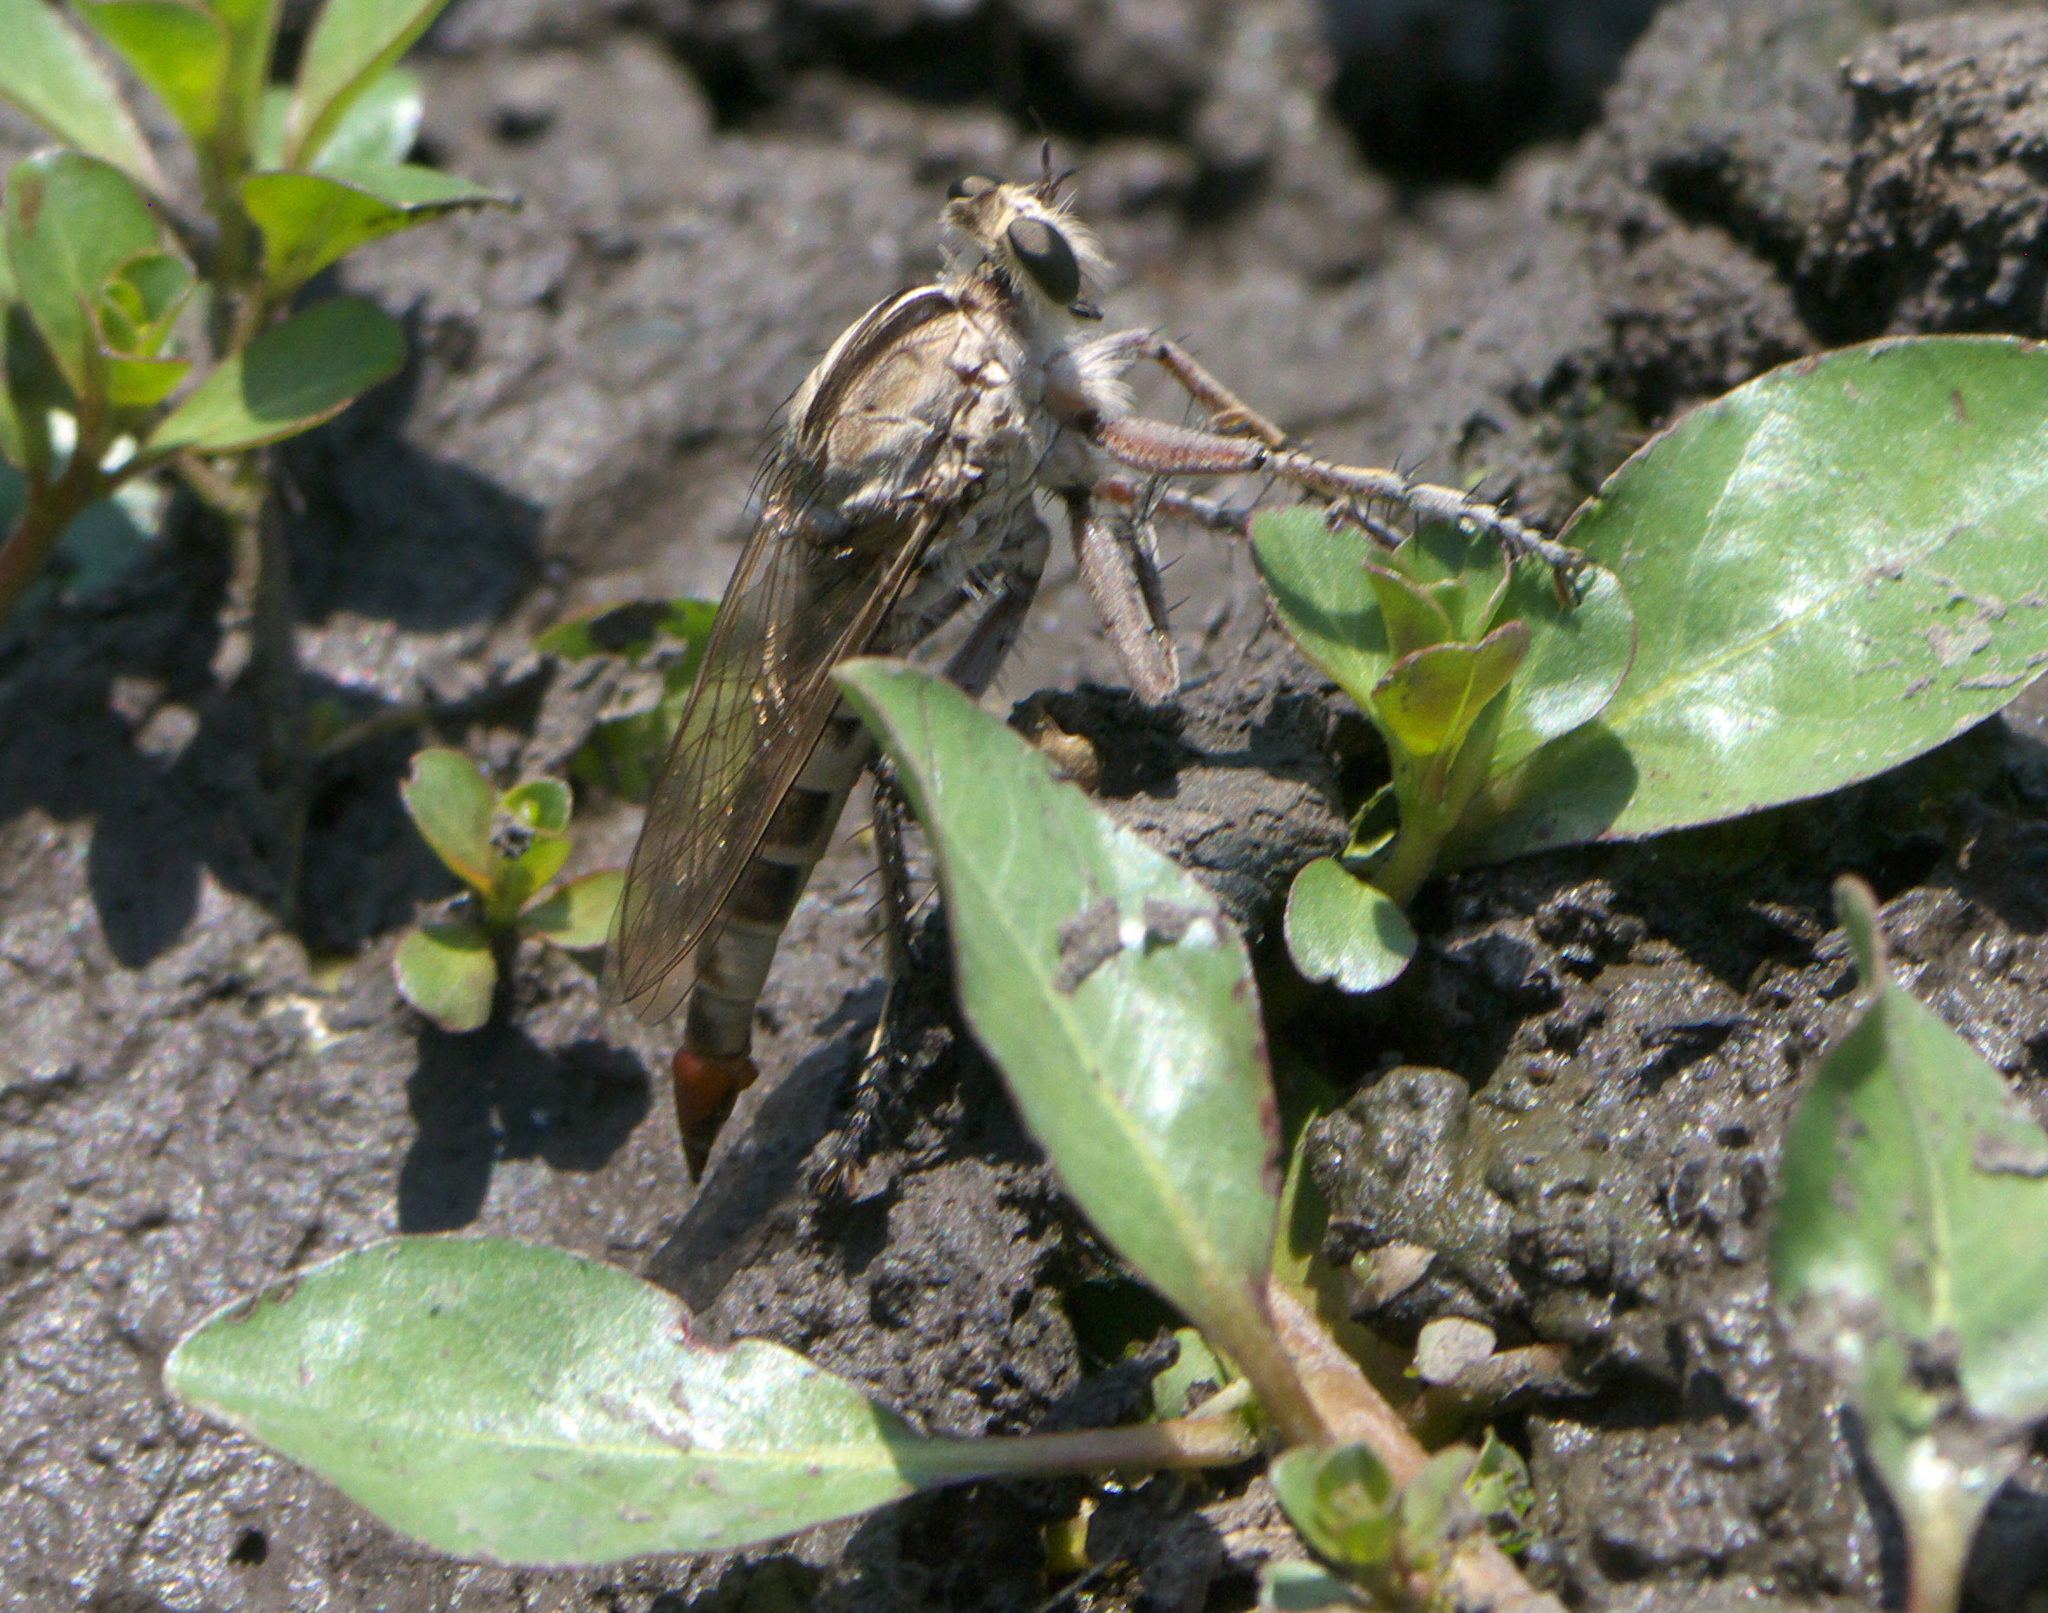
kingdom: Animalia
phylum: Arthropoda
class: Insecta
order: Diptera
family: Asilidae
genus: Triorla
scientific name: Triorla interrupta
